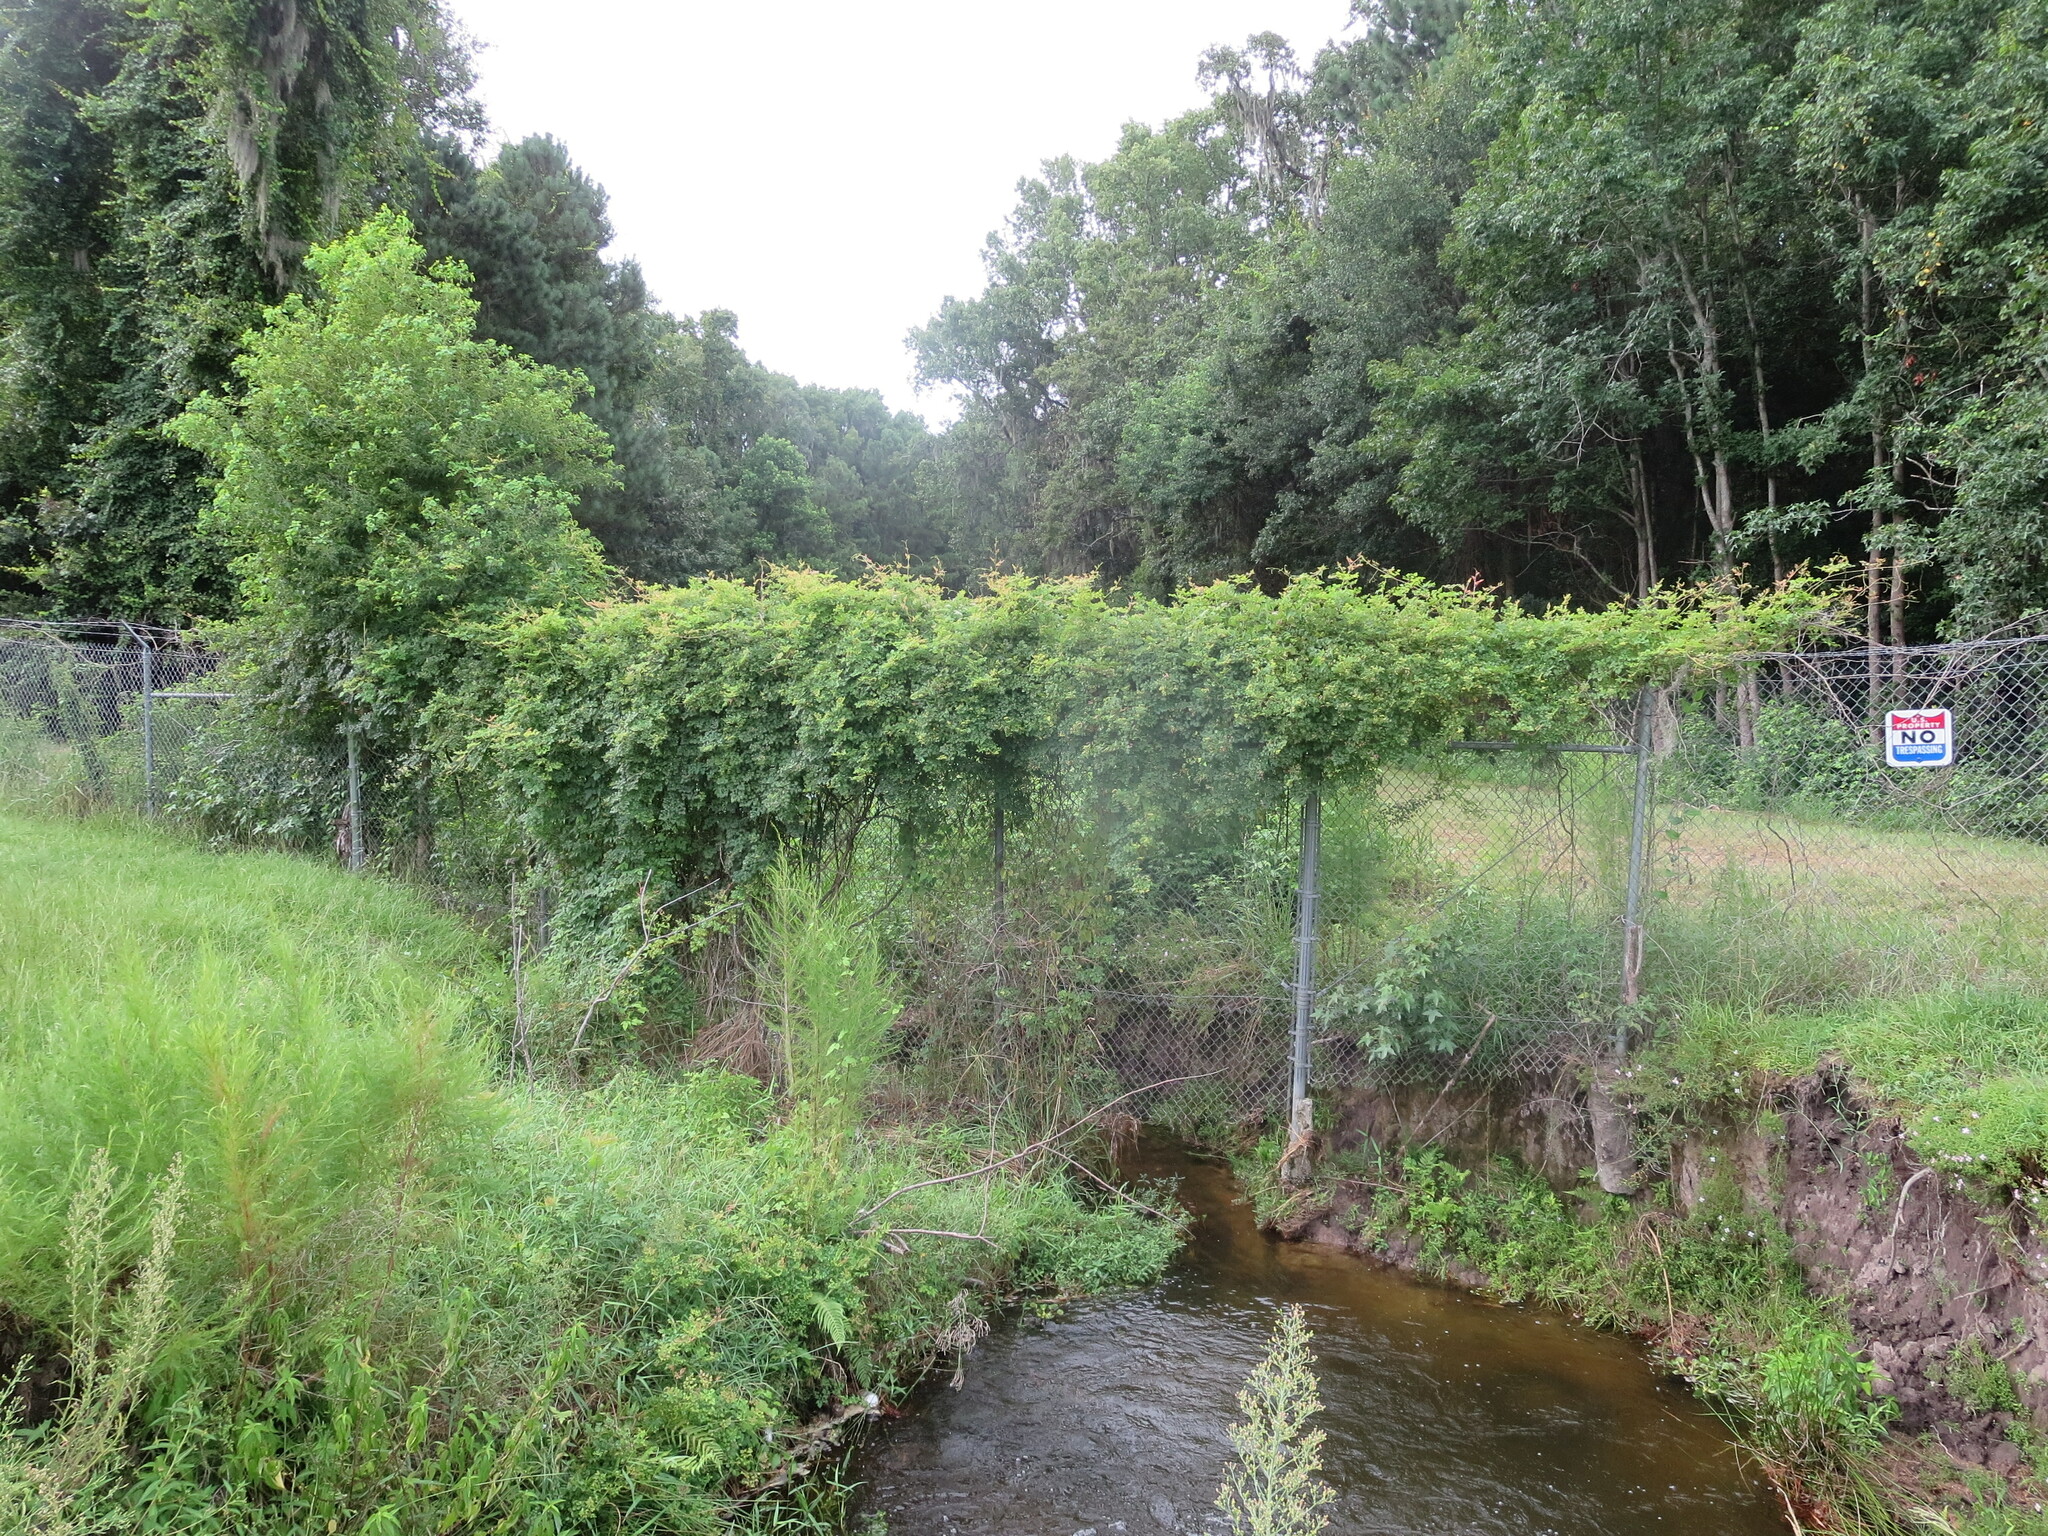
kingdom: Plantae
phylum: Tracheophyta
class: Magnoliopsida
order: Vitales
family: Vitaceae
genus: Nekemias
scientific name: Nekemias arborea
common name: Peppervine
